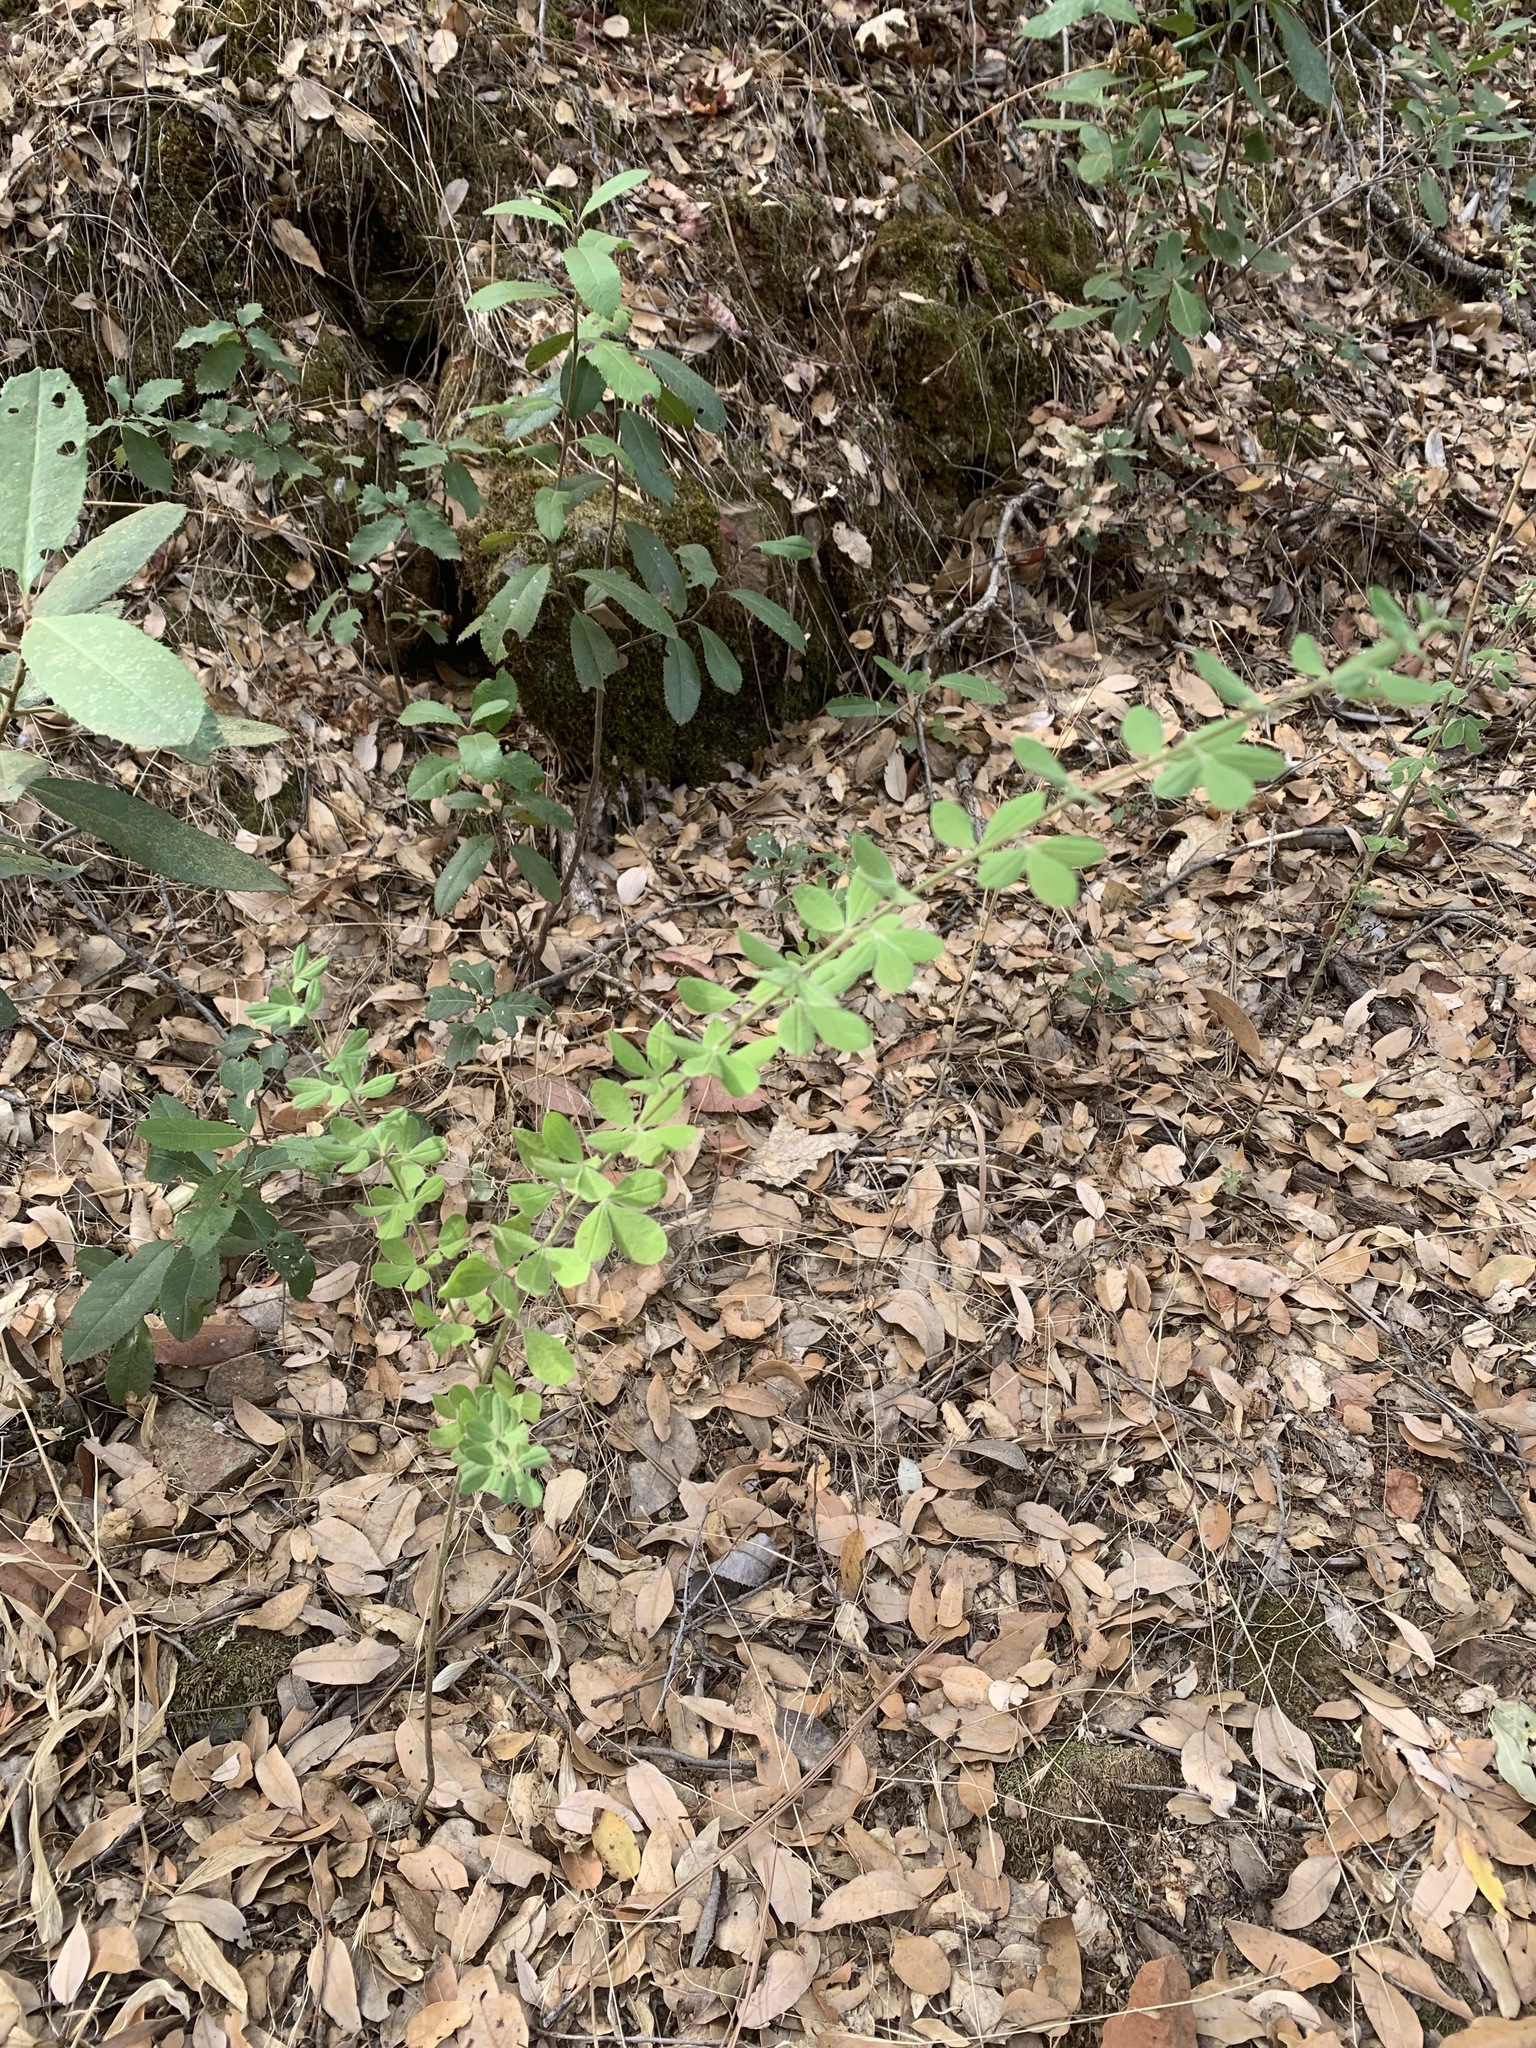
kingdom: Plantae
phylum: Tracheophyta
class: Magnoliopsida
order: Fabales
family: Fabaceae
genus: Genista
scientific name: Genista monspessulana
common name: Montpellier broom
